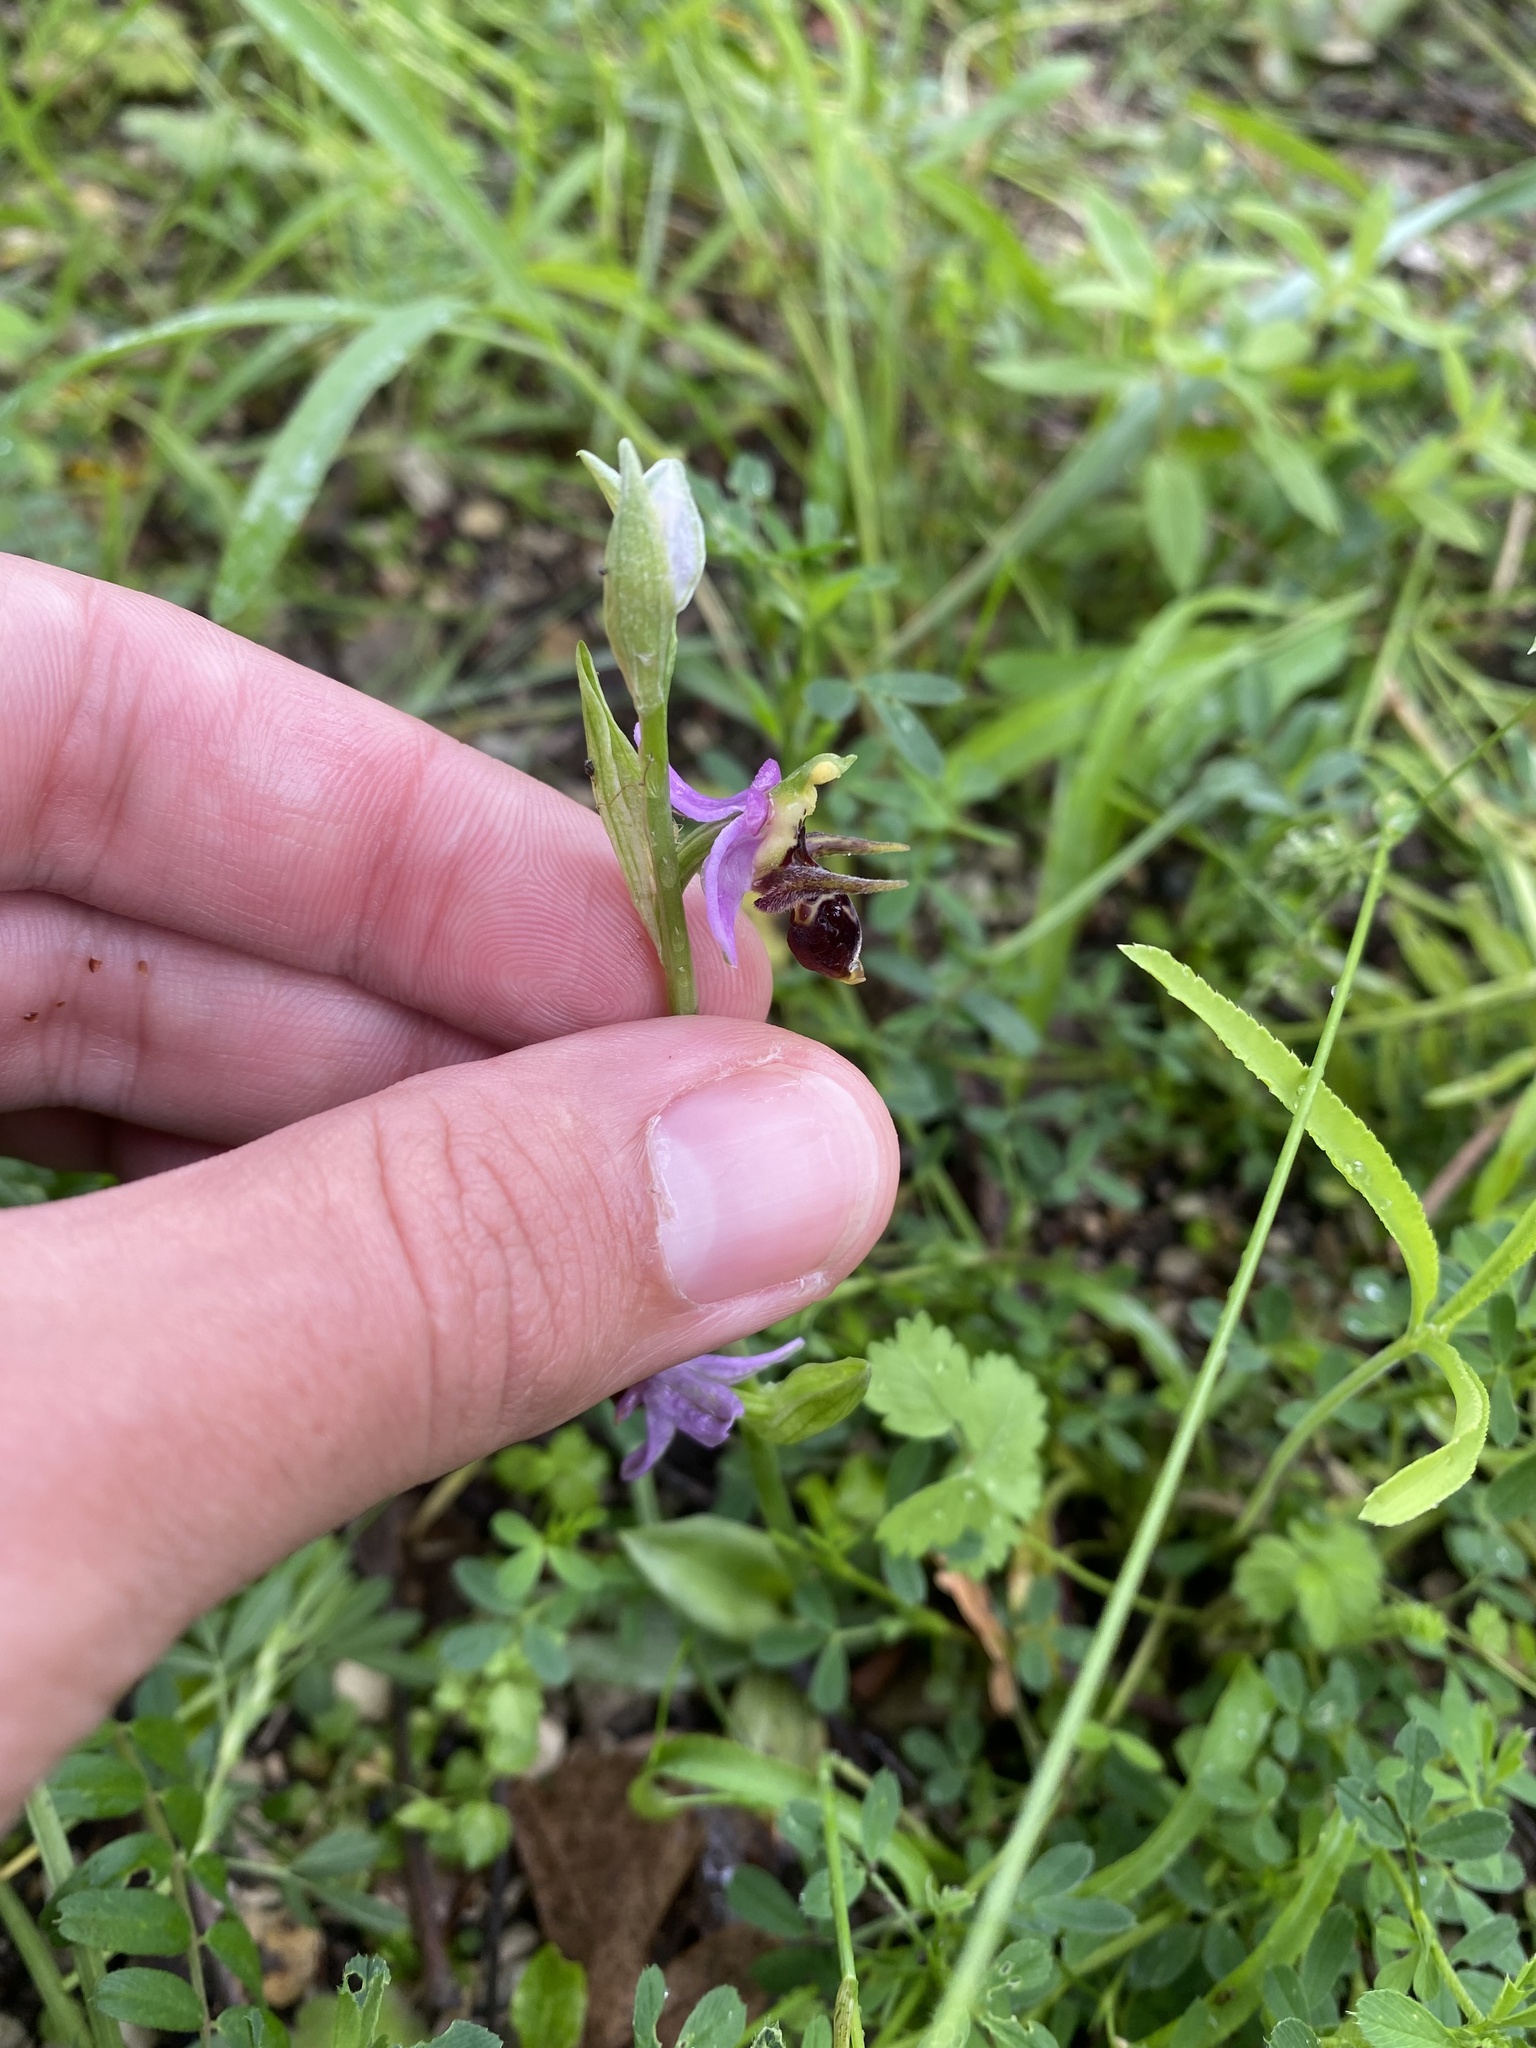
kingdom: Plantae
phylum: Tracheophyta
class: Liliopsida
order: Asparagales
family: Orchidaceae
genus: Ophrys
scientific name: Ophrys
